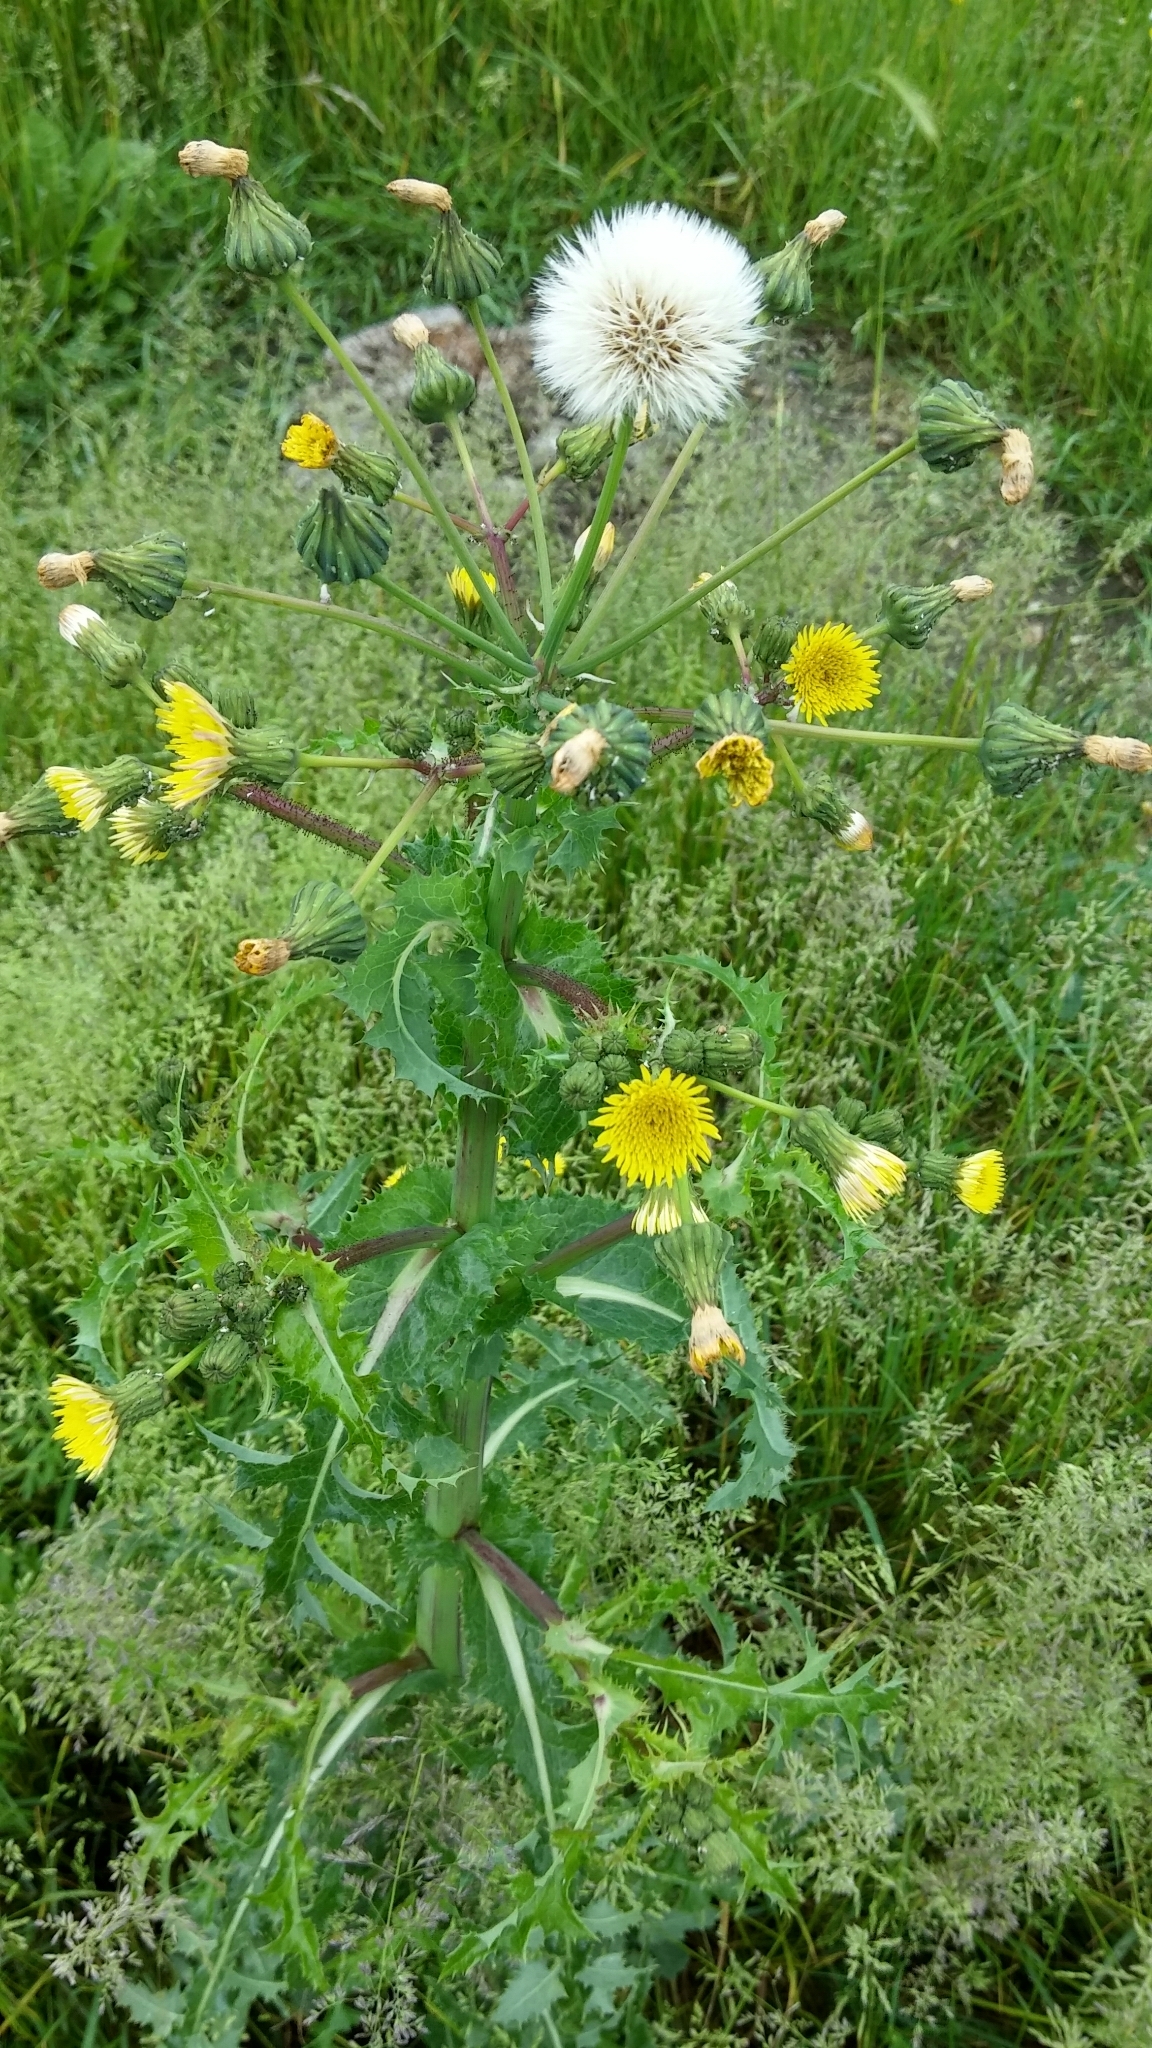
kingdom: Plantae
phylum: Tracheophyta
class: Magnoliopsida
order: Asterales
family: Asteraceae
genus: Sonchus
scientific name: Sonchus oleraceus
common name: Common sowthistle
